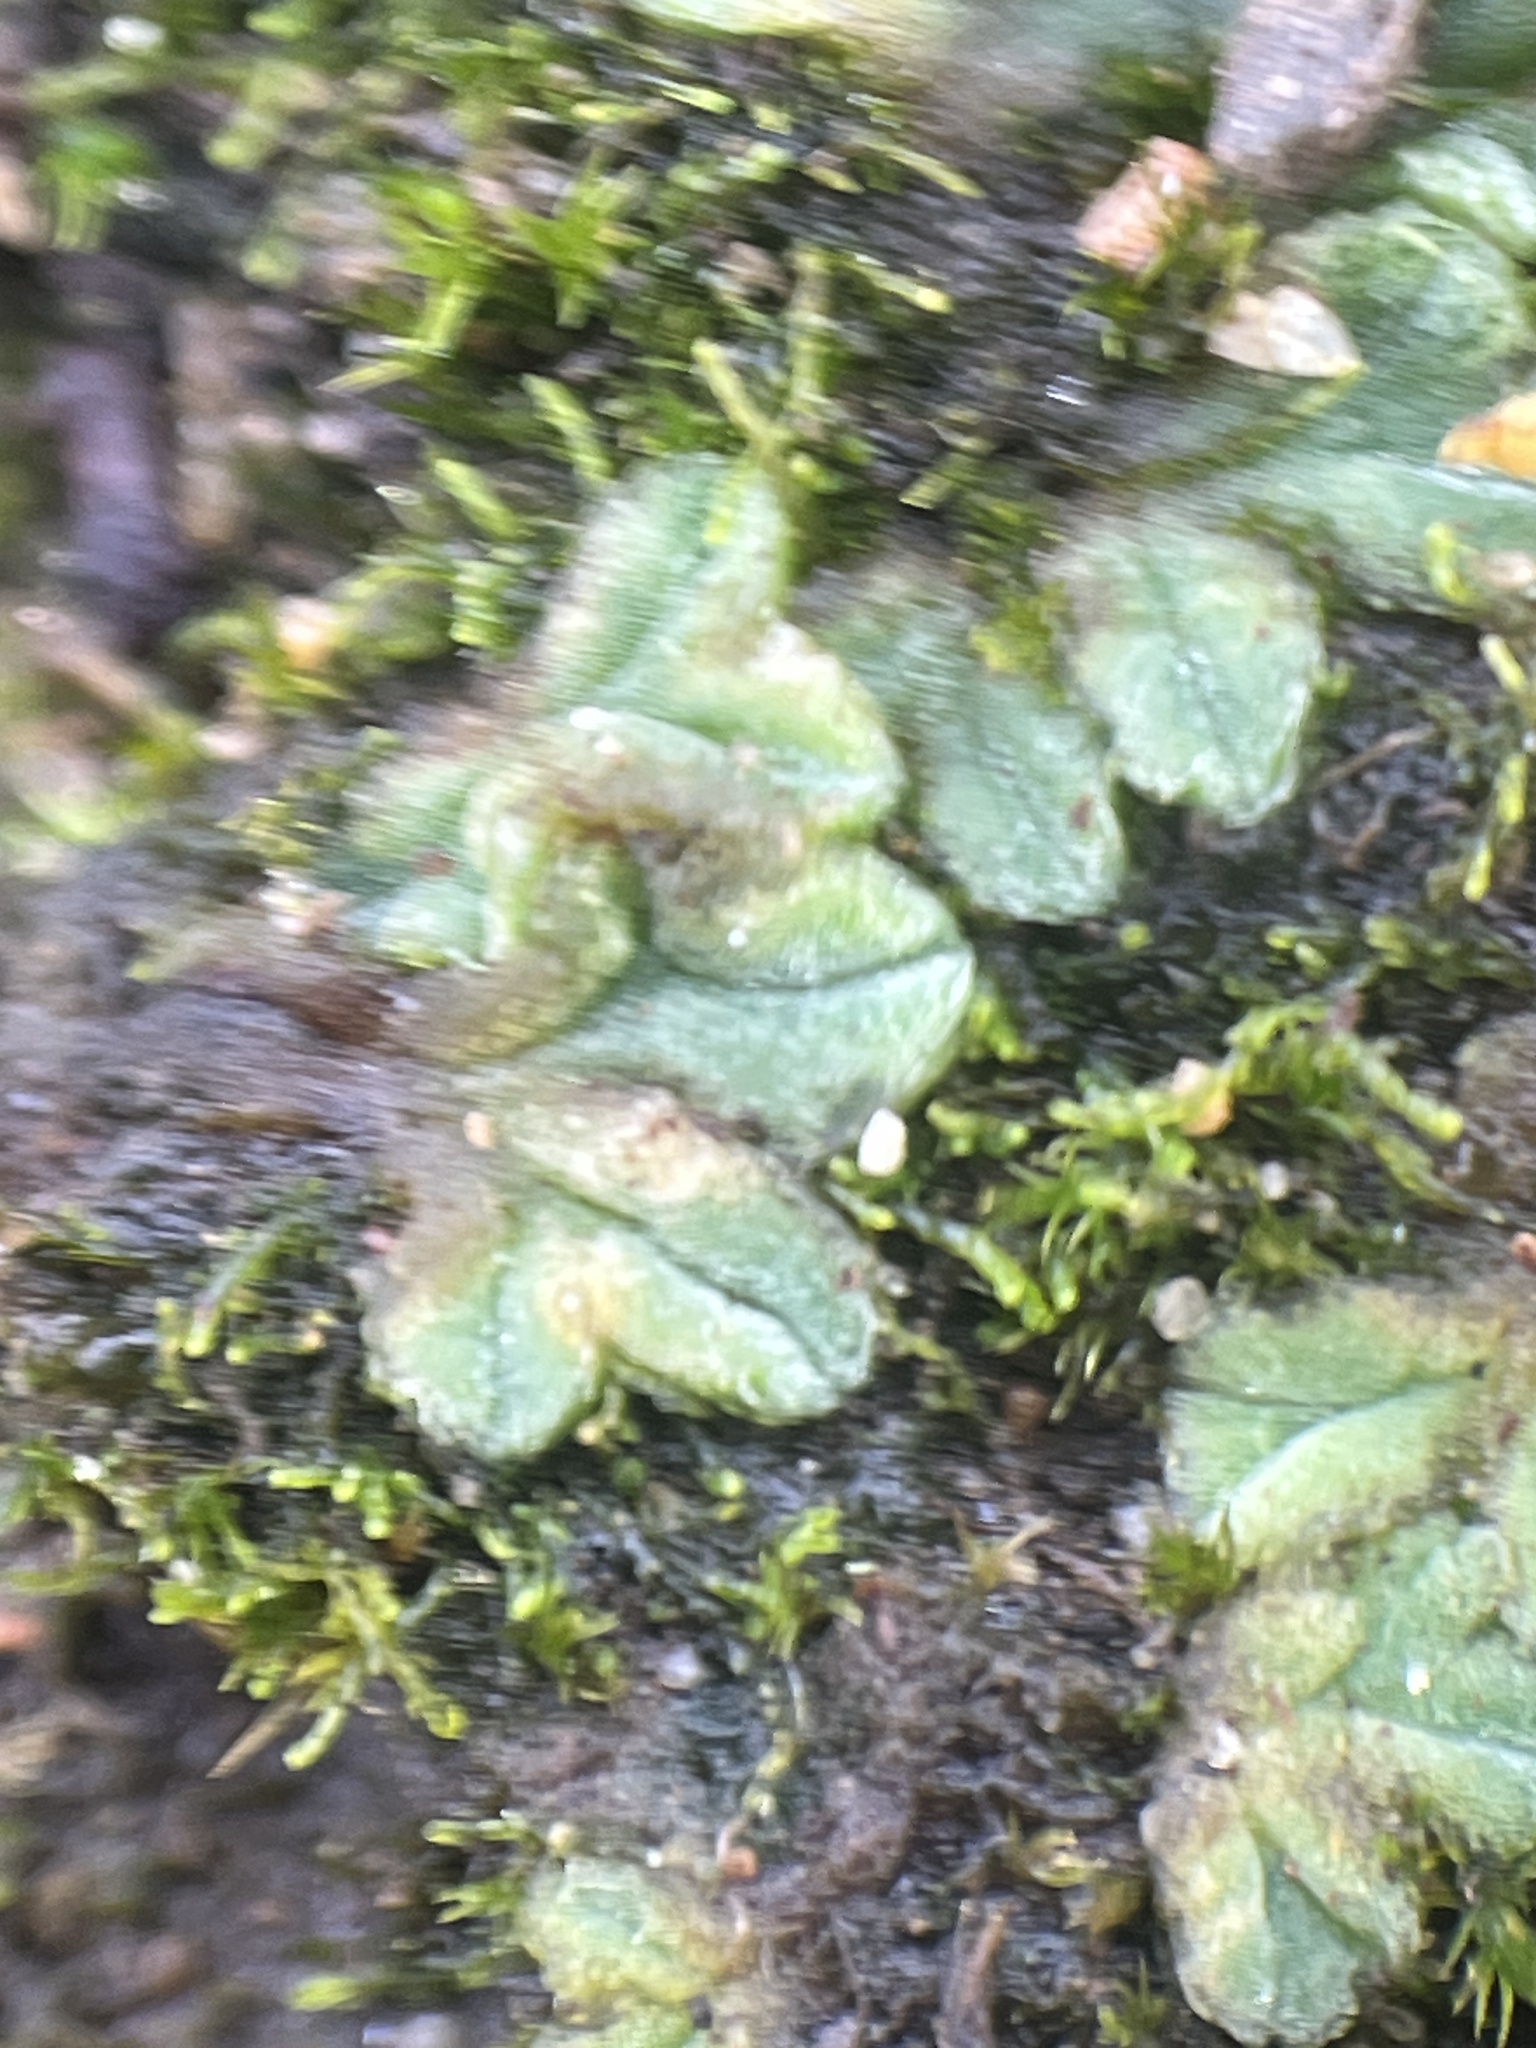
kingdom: Plantae
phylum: Marchantiophyta
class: Marchantiopsida
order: Marchantiales
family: Ricciaceae
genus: Riccia
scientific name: Riccia sorocarpa
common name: Common crystalwort
